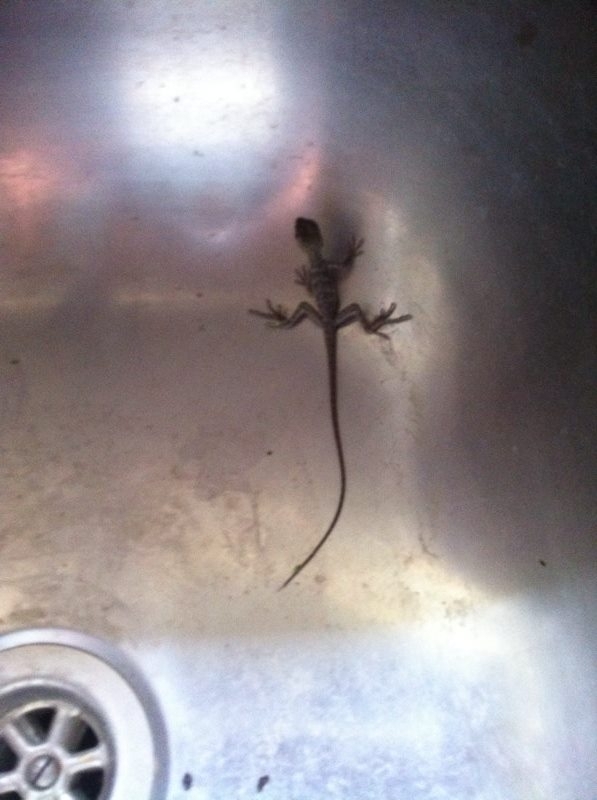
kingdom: Animalia
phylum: Chordata
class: Squamata
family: Agamidae
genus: Intellagama
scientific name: Intellagama lesueurii
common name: Eastern water dragon
